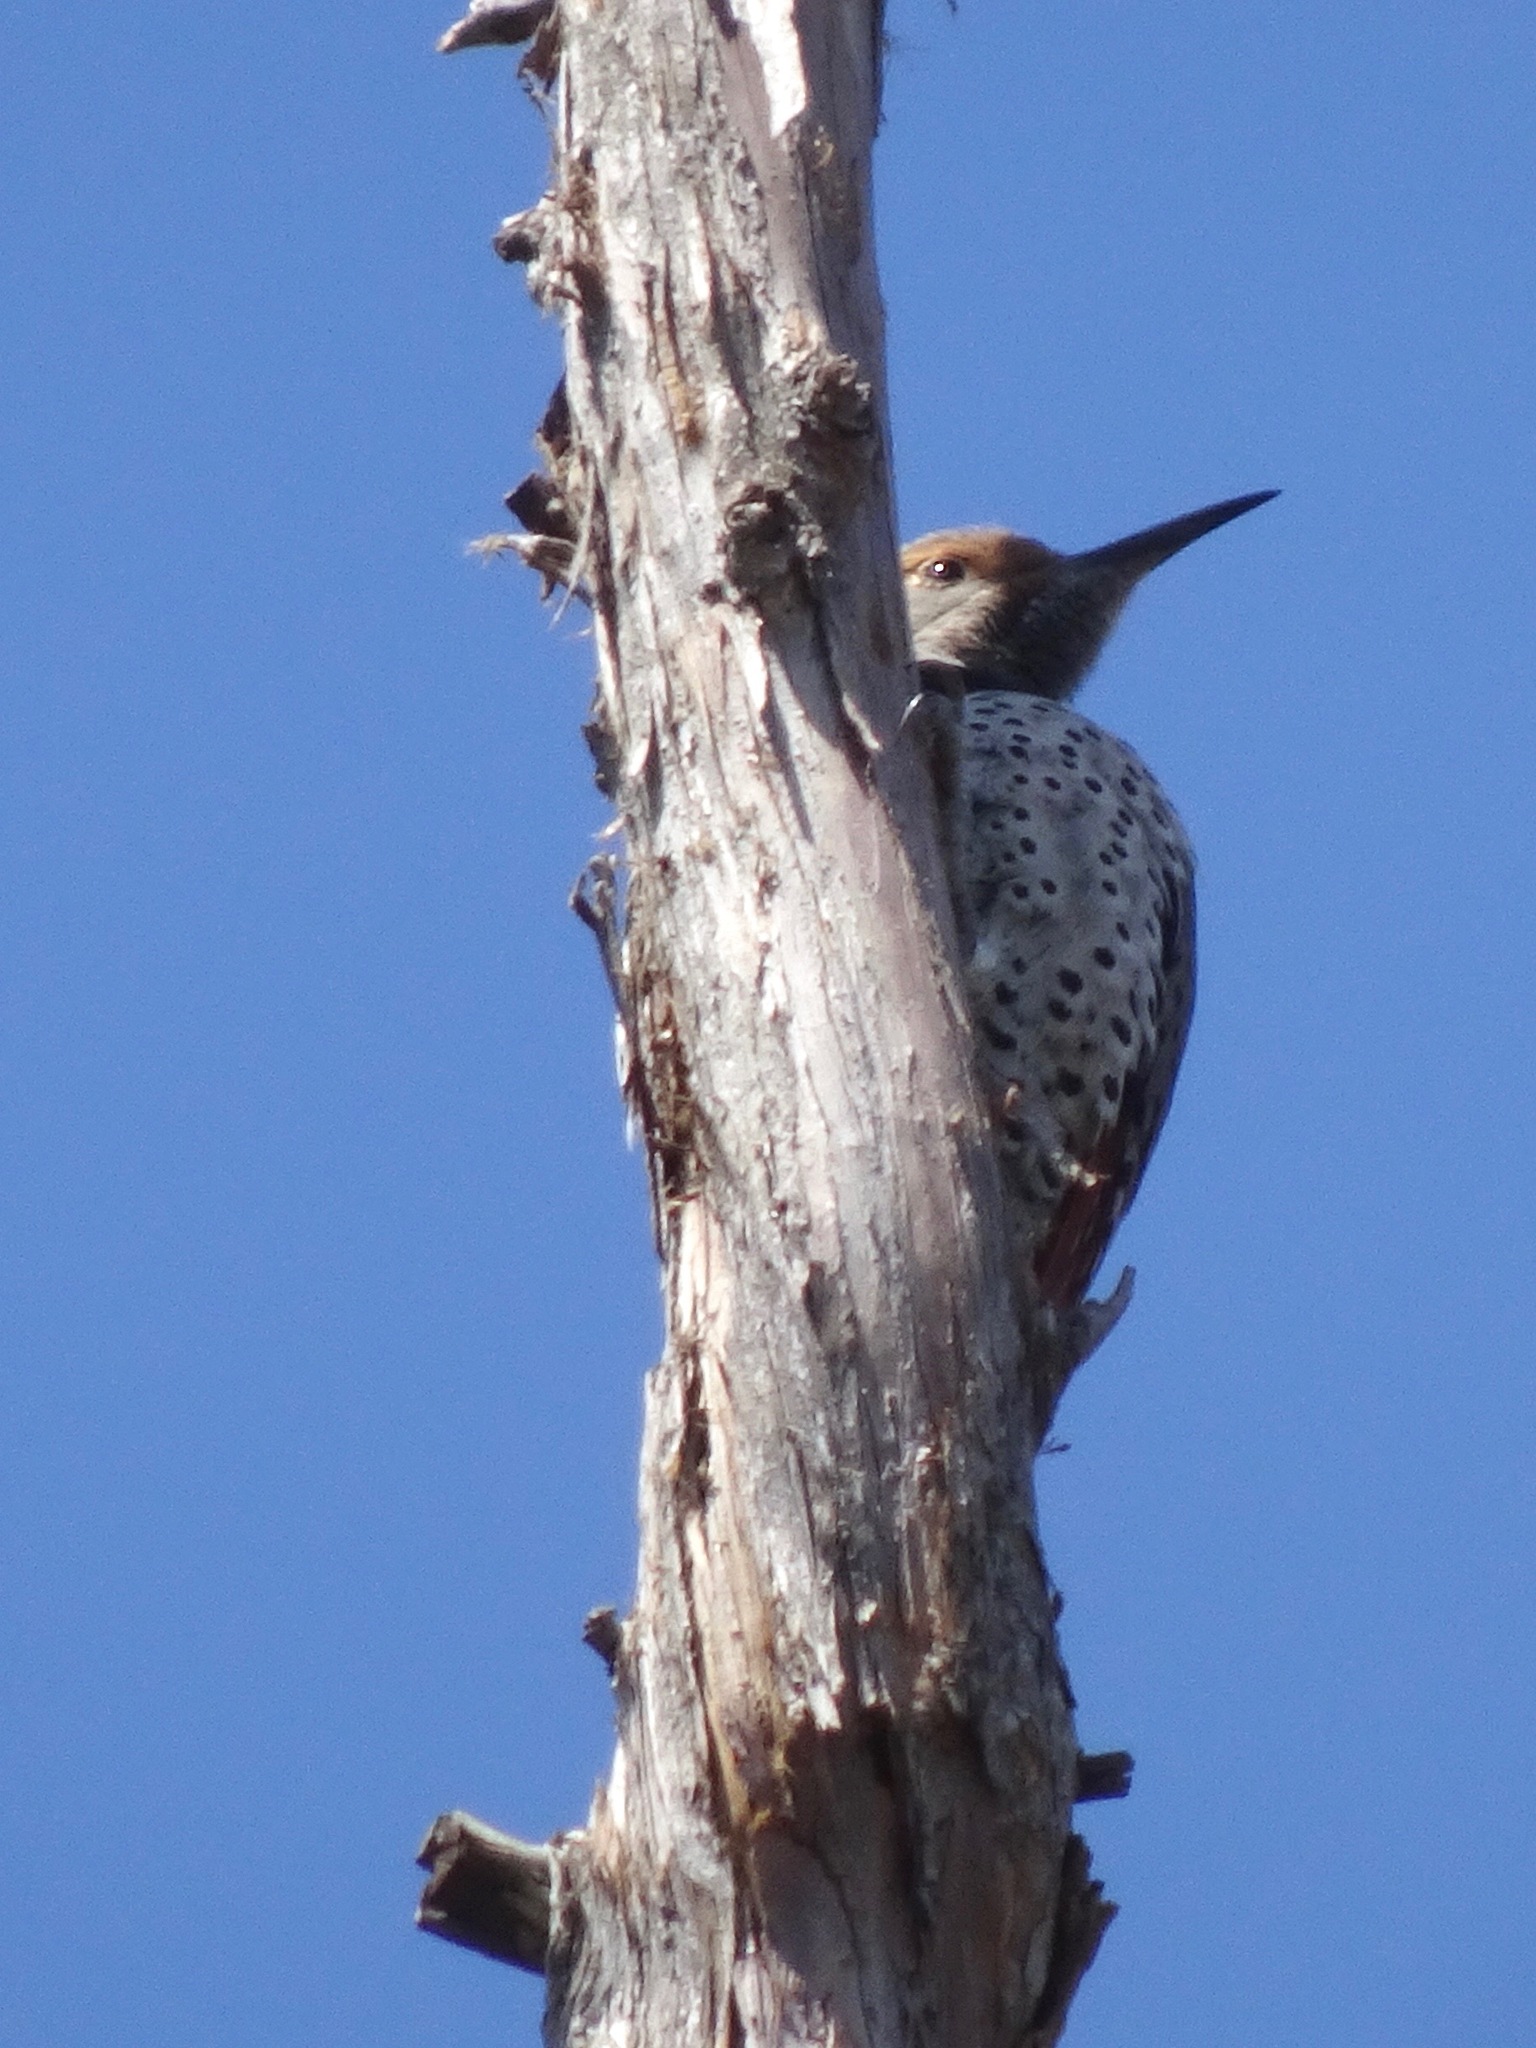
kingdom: Animalia
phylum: Chordata
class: Aves
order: Piciformes
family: Picidae
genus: Colaptes
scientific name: Colaptes auratus
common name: Northern flicker
